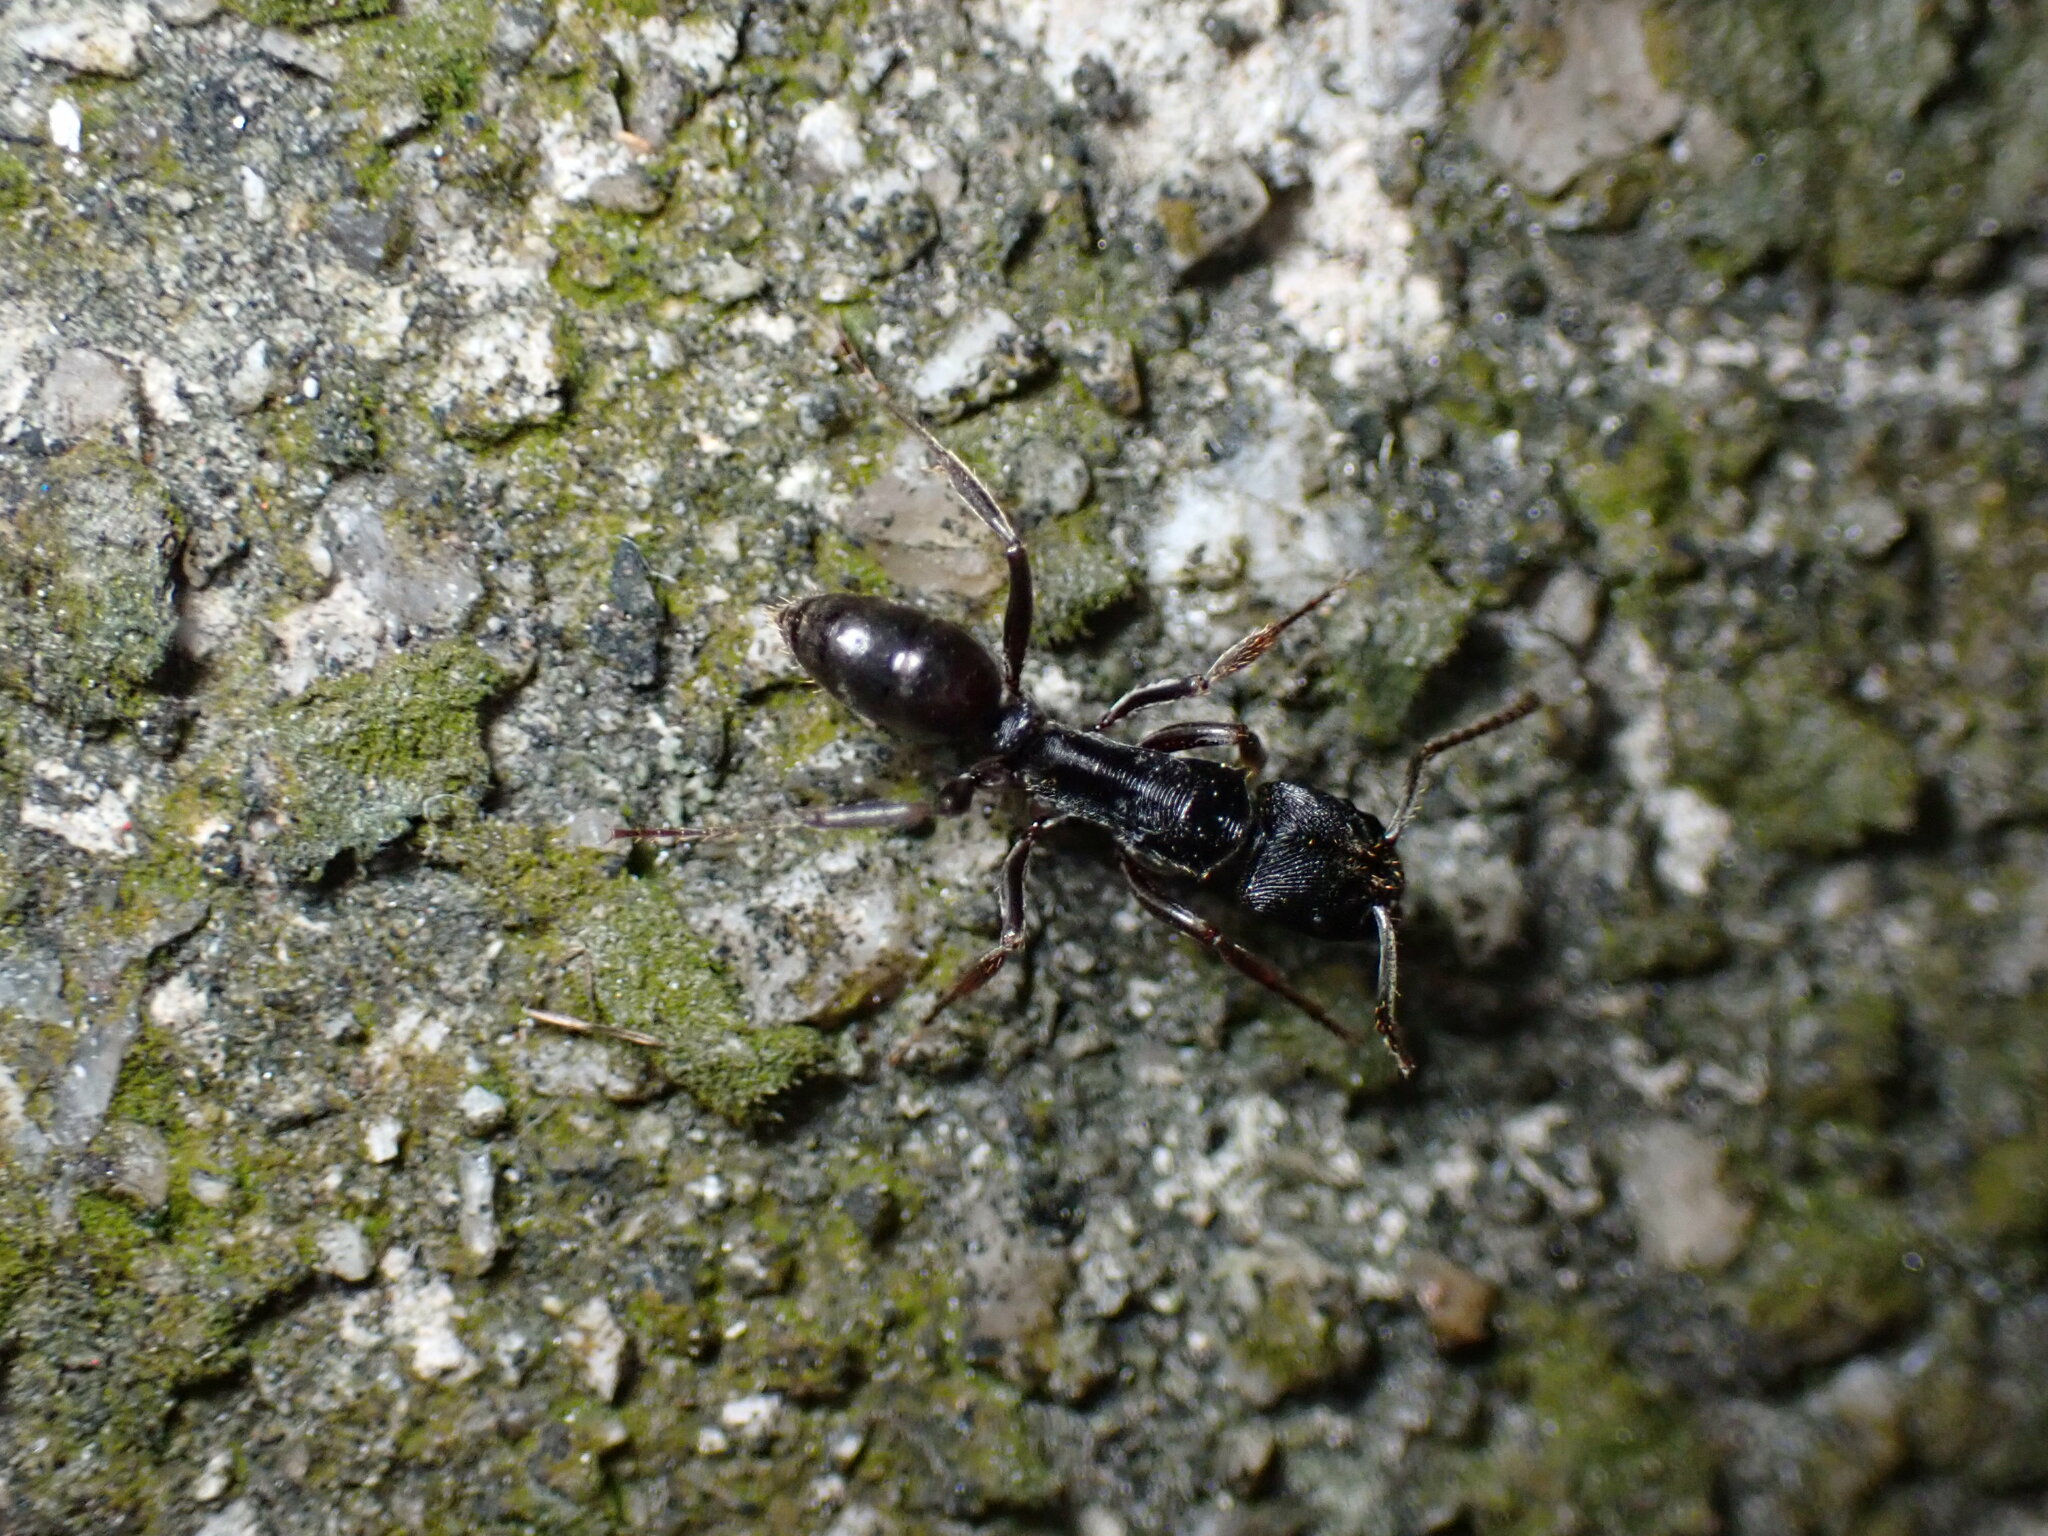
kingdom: Animalia
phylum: Arthropoda
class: Insecta
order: Hymenoptera
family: Formicidae
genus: Odontoponera
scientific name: Odontoponera denticulata
